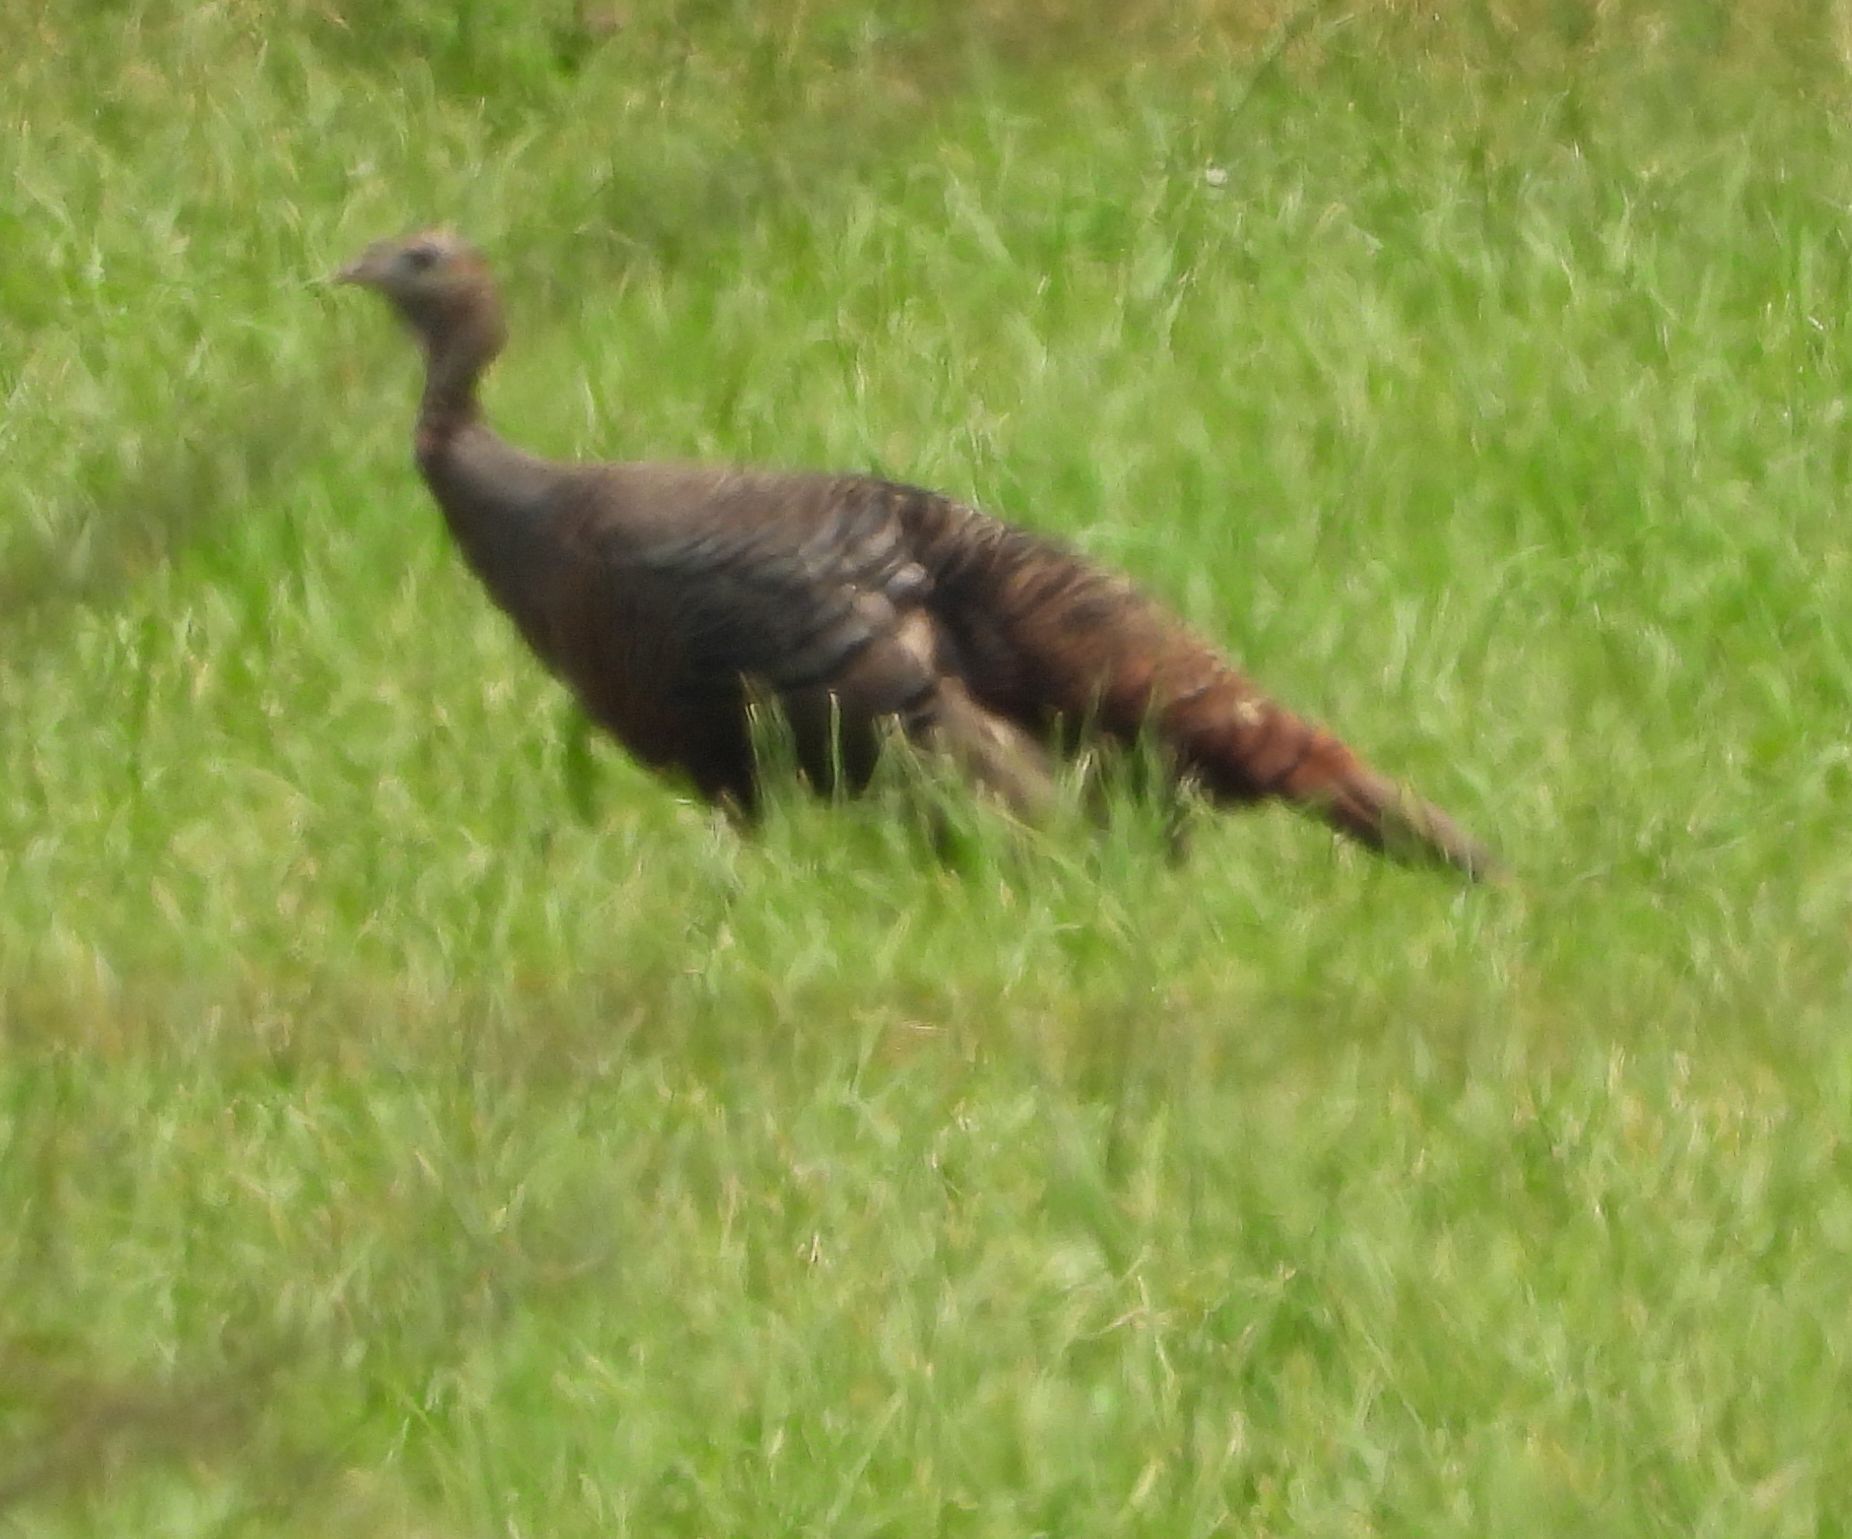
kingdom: Animalia
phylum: Chordata
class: Aves
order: Galliformes
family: Phasianidae
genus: Meleagris
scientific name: Meleagris gallopavo
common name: Wild turkey
